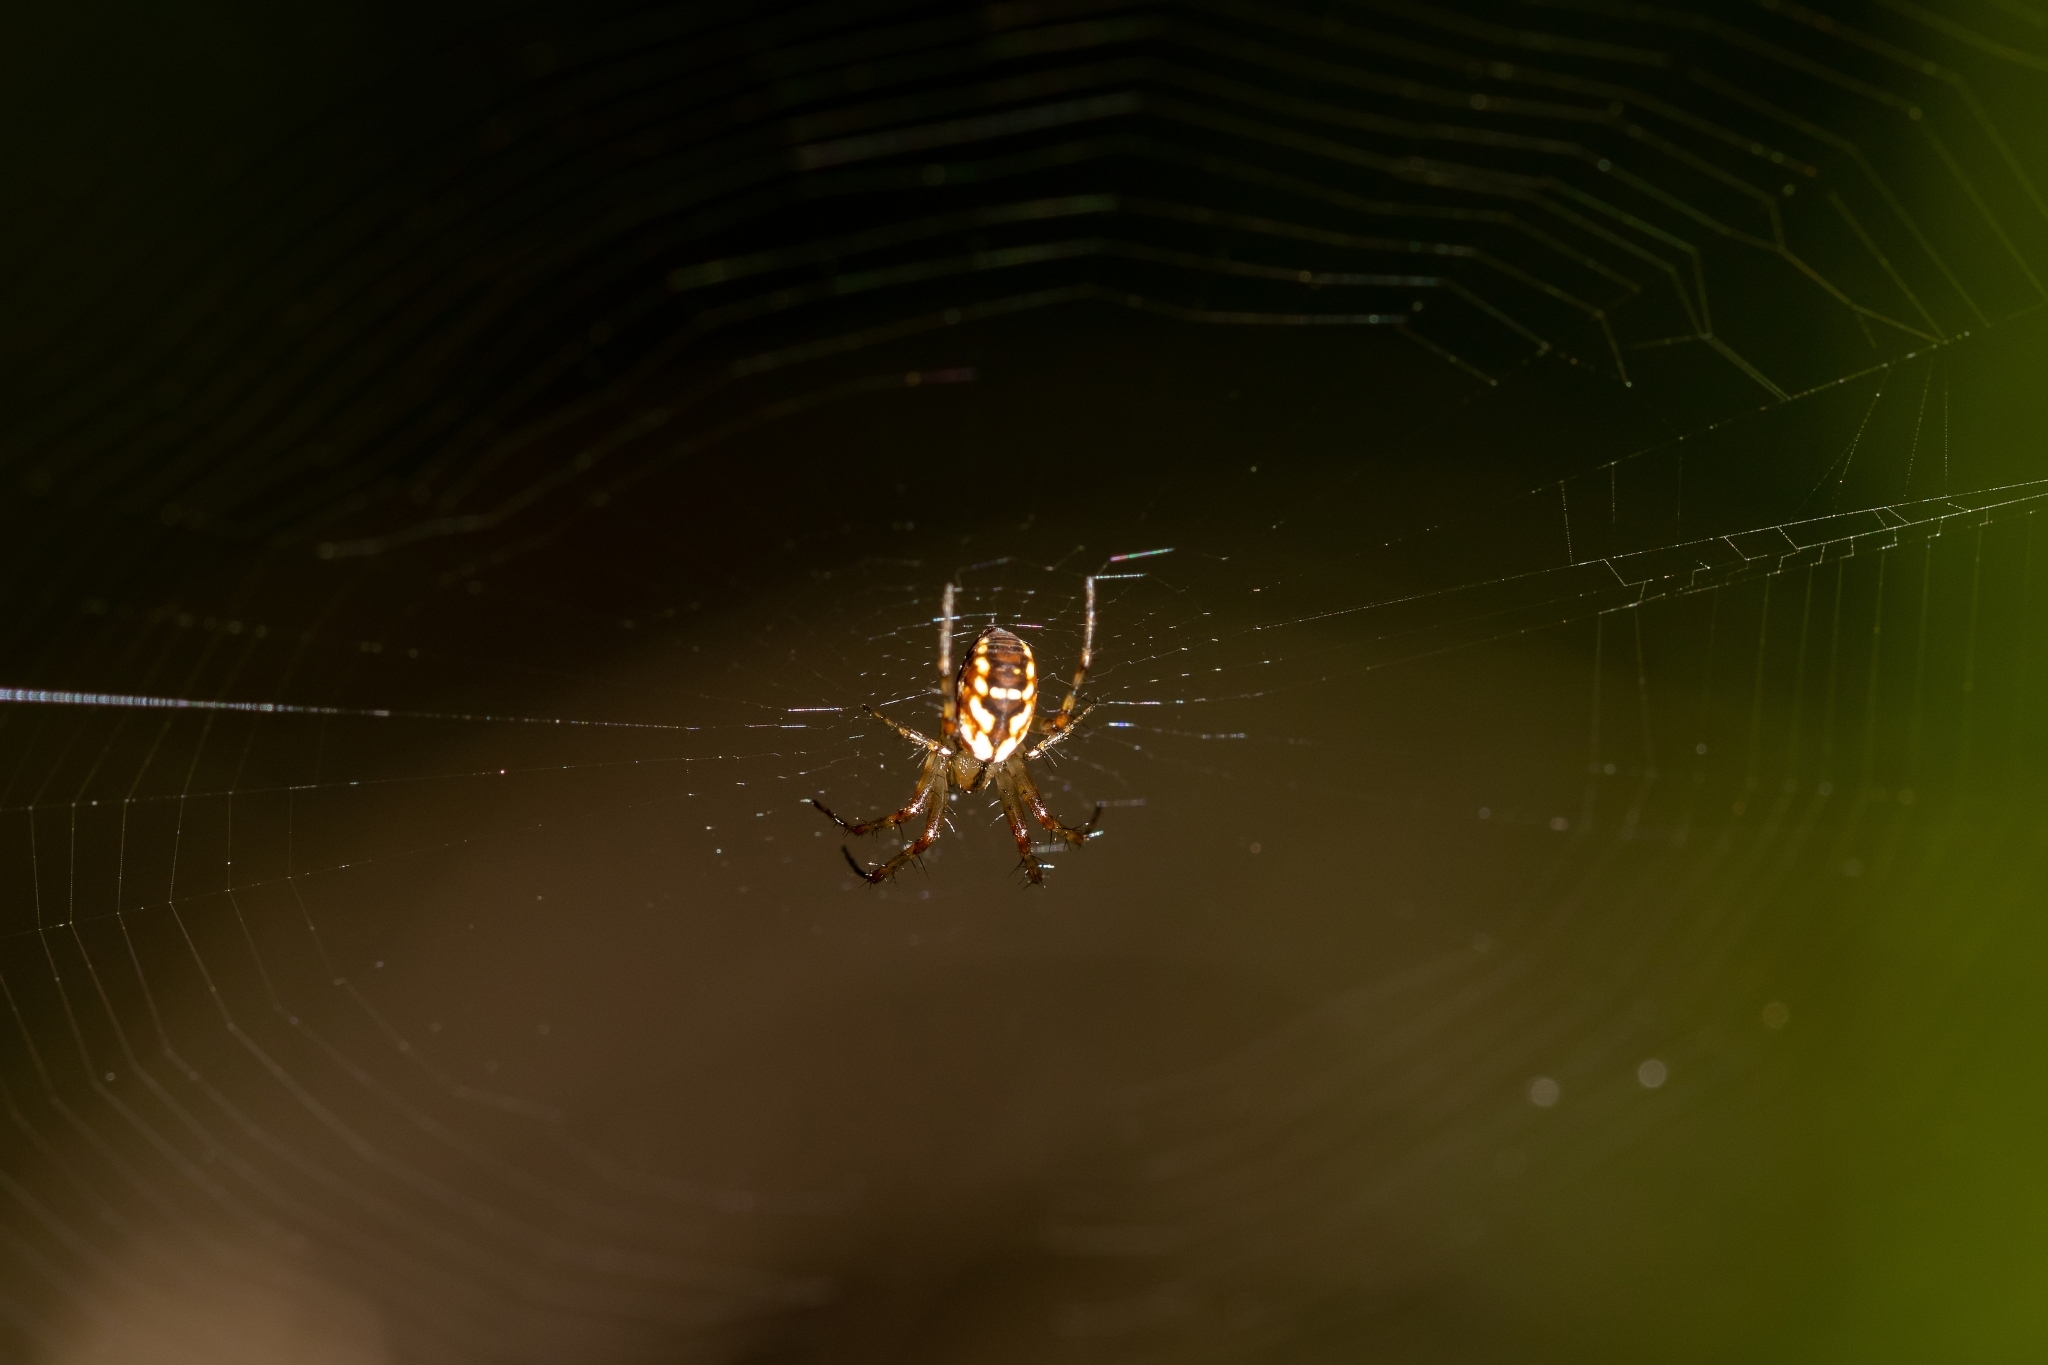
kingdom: Animalia
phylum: Arthropoda
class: Arachnida
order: Araneae
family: Araneidae
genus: Mangora
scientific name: Mangora placida
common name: Tuft-legged orbweaver
